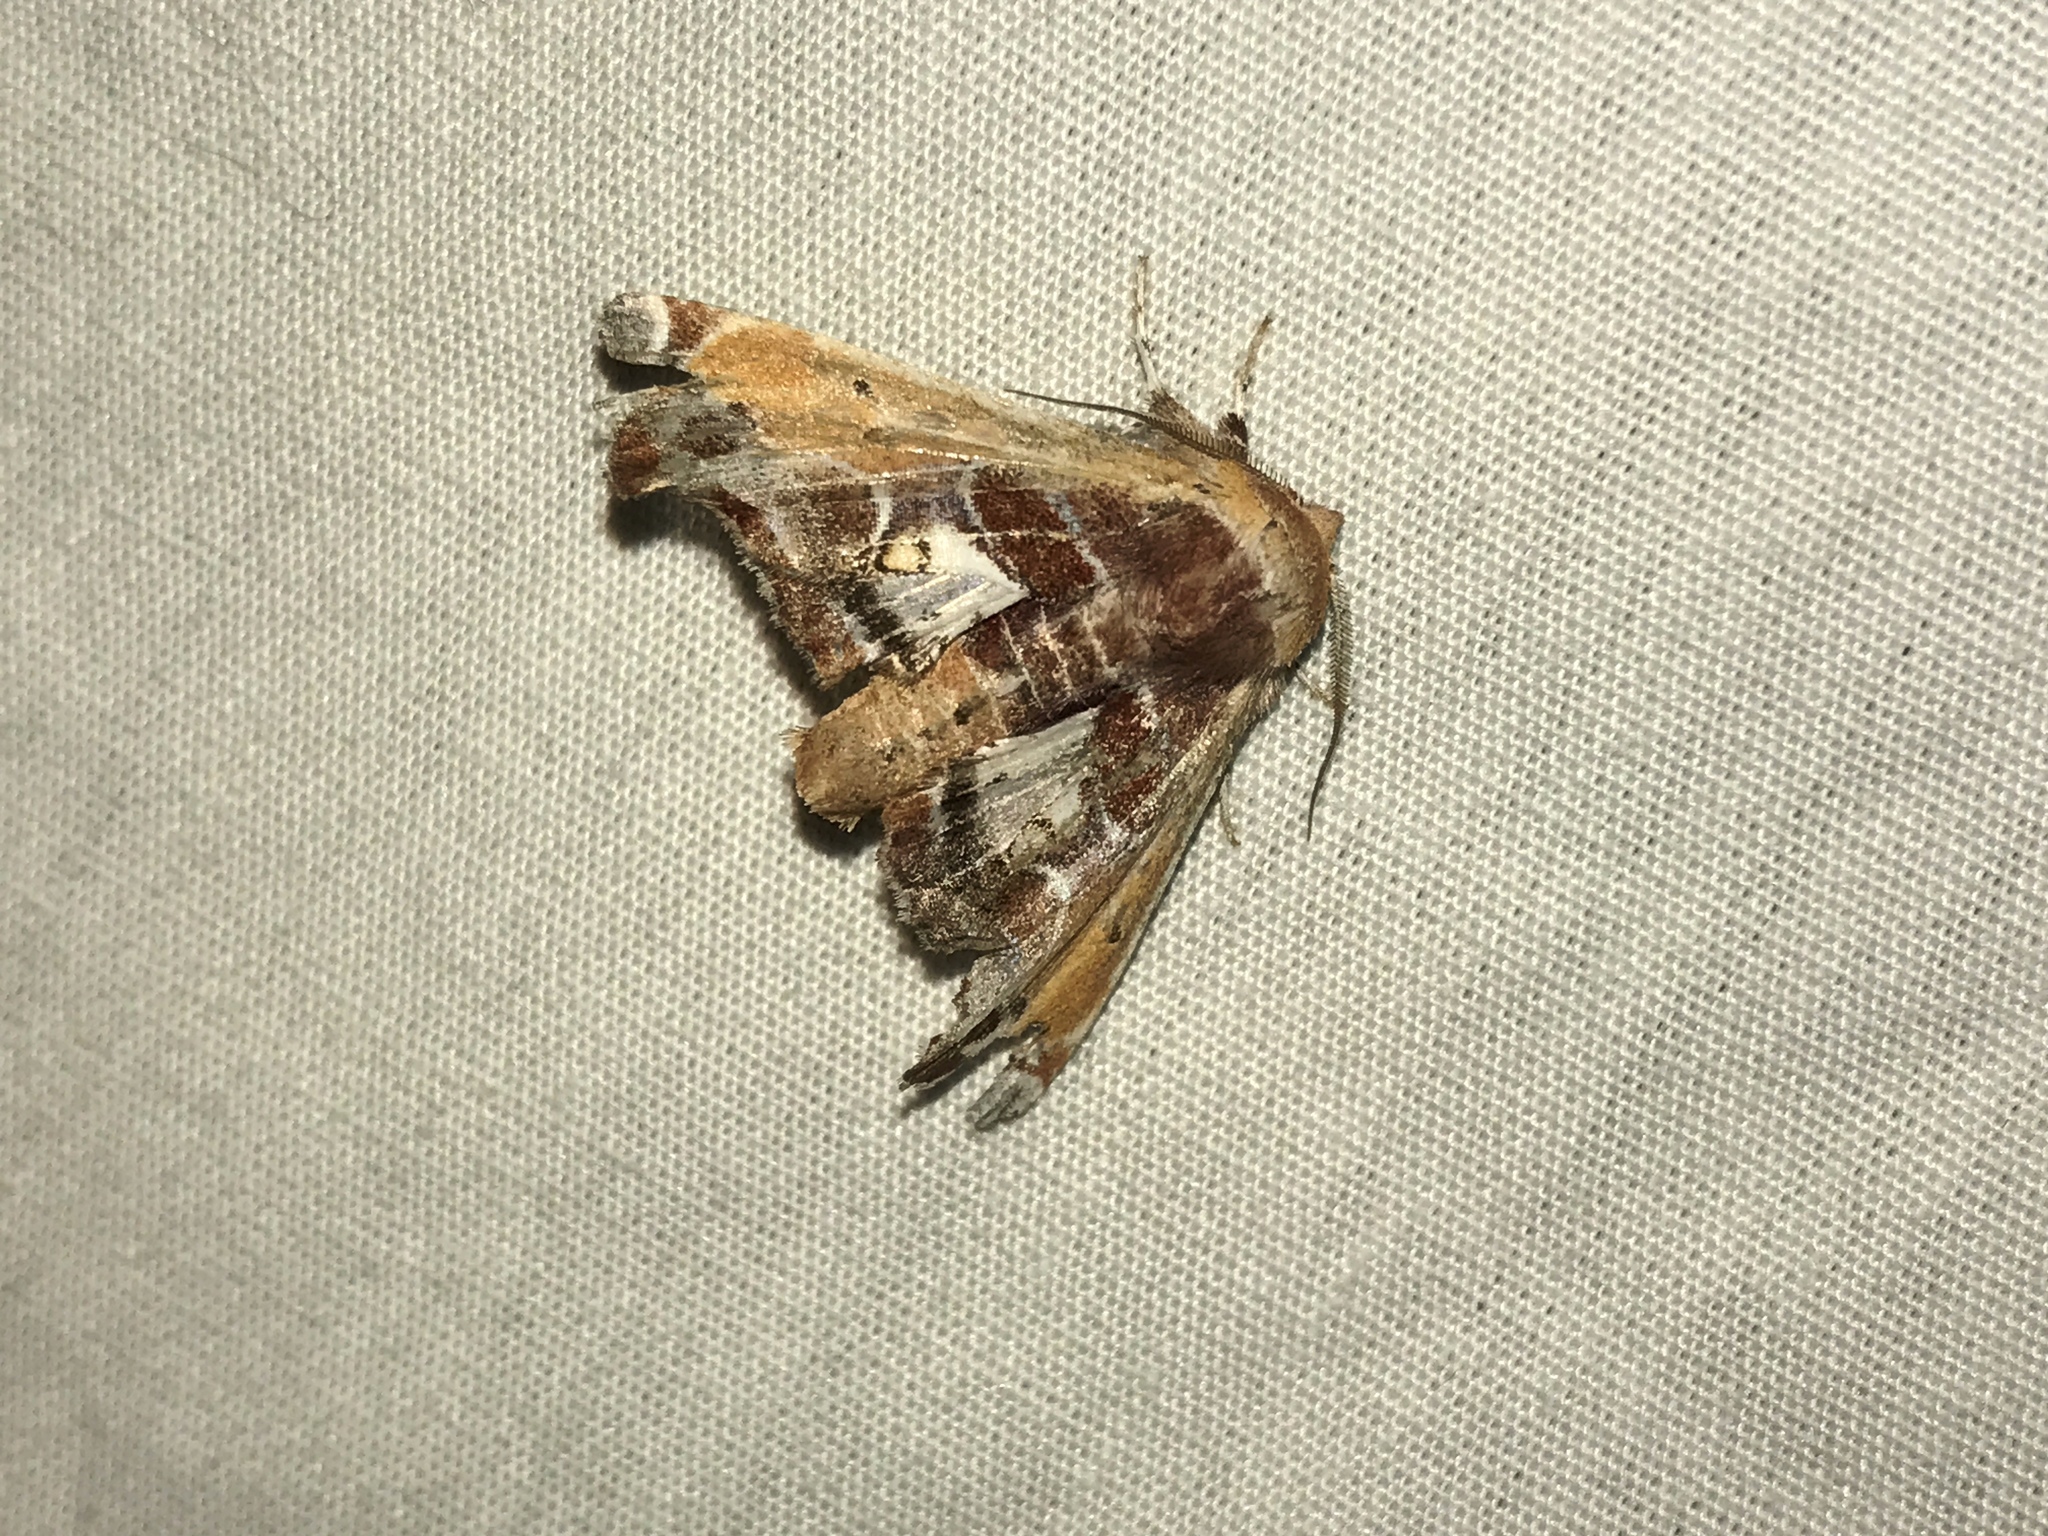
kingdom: Animalia
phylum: Arthropoda
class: Insecta
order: Lepidoptera
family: Euteliidae
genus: Eutelia
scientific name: Eutelia pulcherrimus
